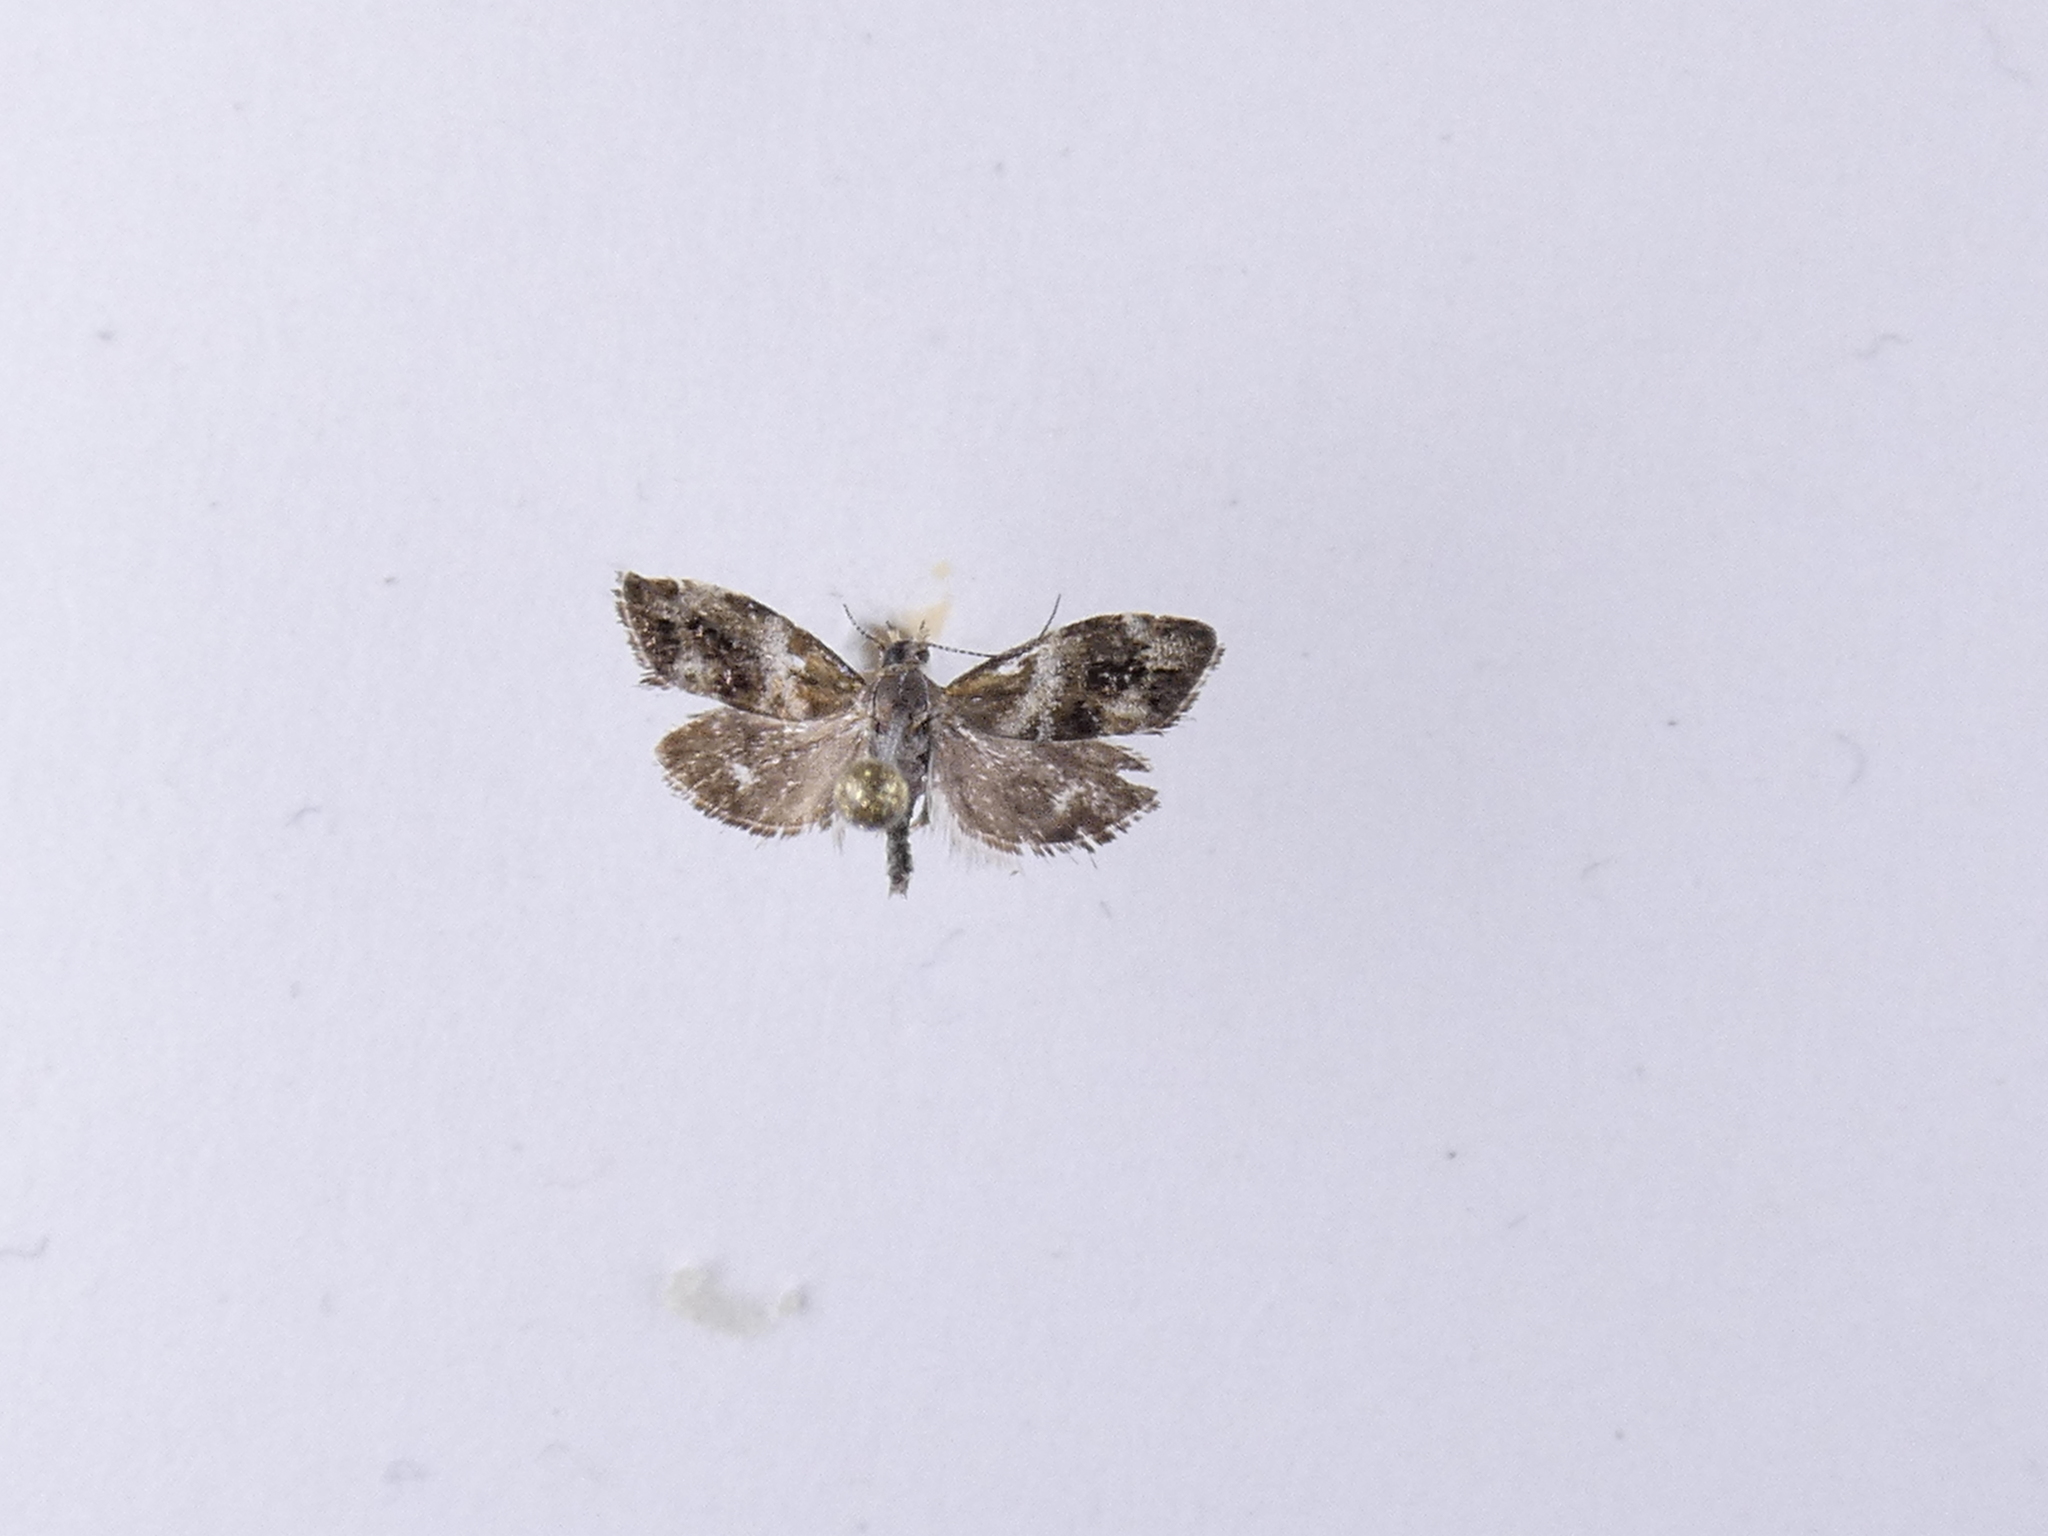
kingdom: Animalia
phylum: Arthropoda
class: Insecta
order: Lepidoptera
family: Choreutidae
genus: Tebenna
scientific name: Tebenna micalis
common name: Vagrant twitcher
